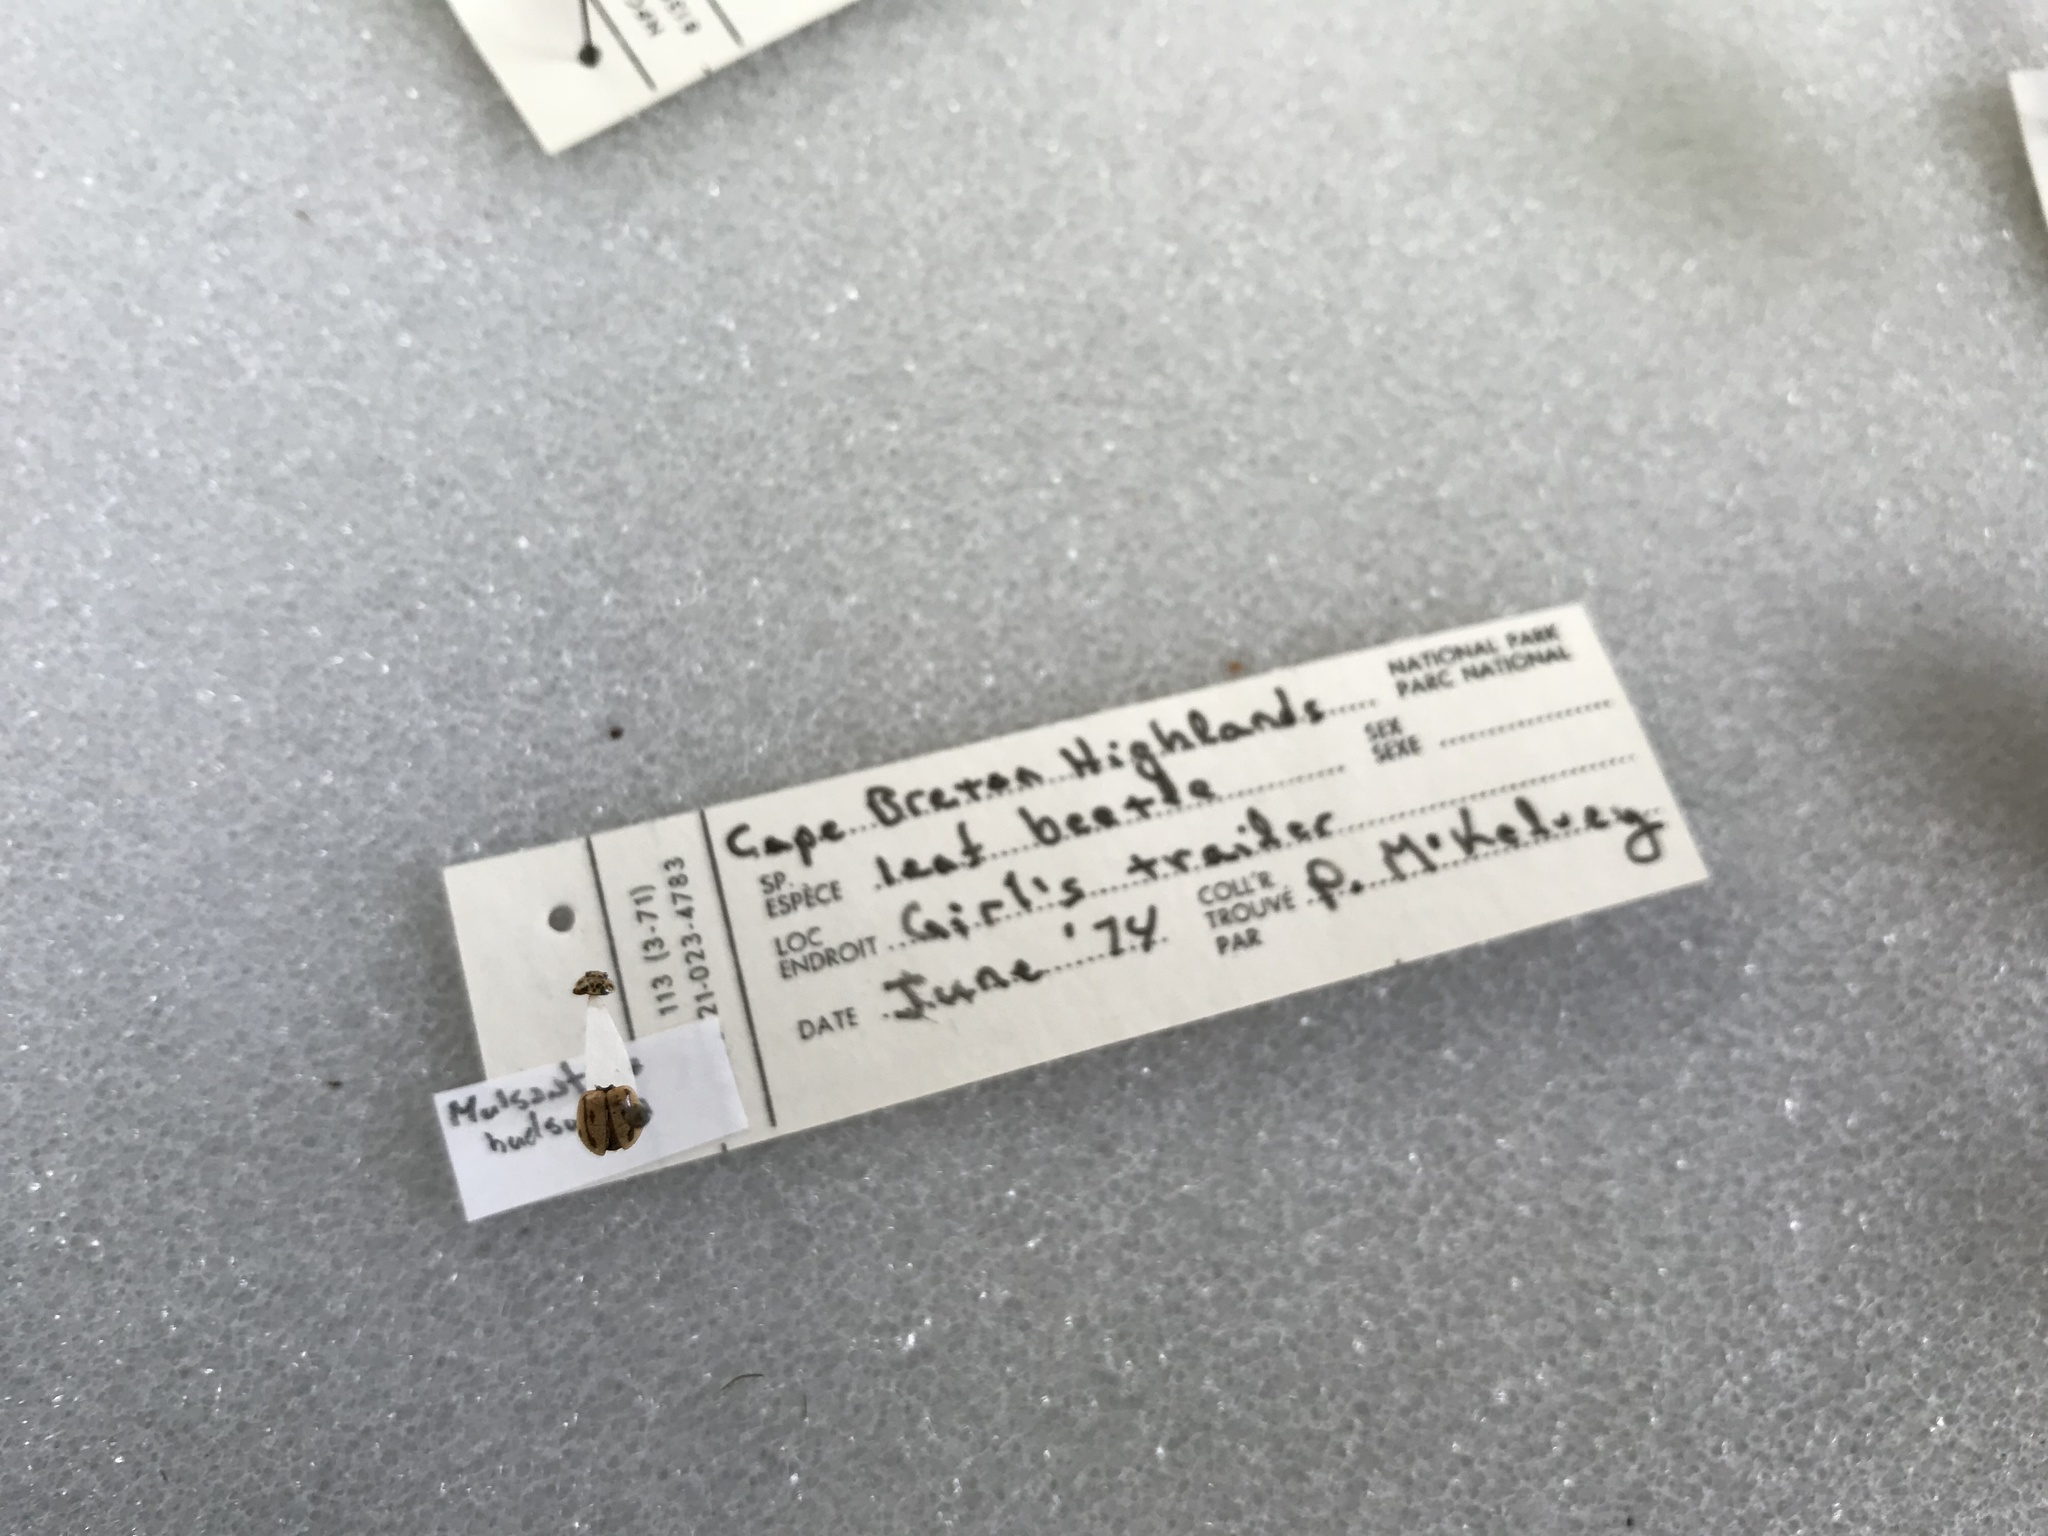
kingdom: Animalia
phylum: Arthropoda
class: Insecta
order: Coleoptera
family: Coccinellidae
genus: Mulsantina
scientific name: Mulsantina hudsonica
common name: Hudsonian ladybird
